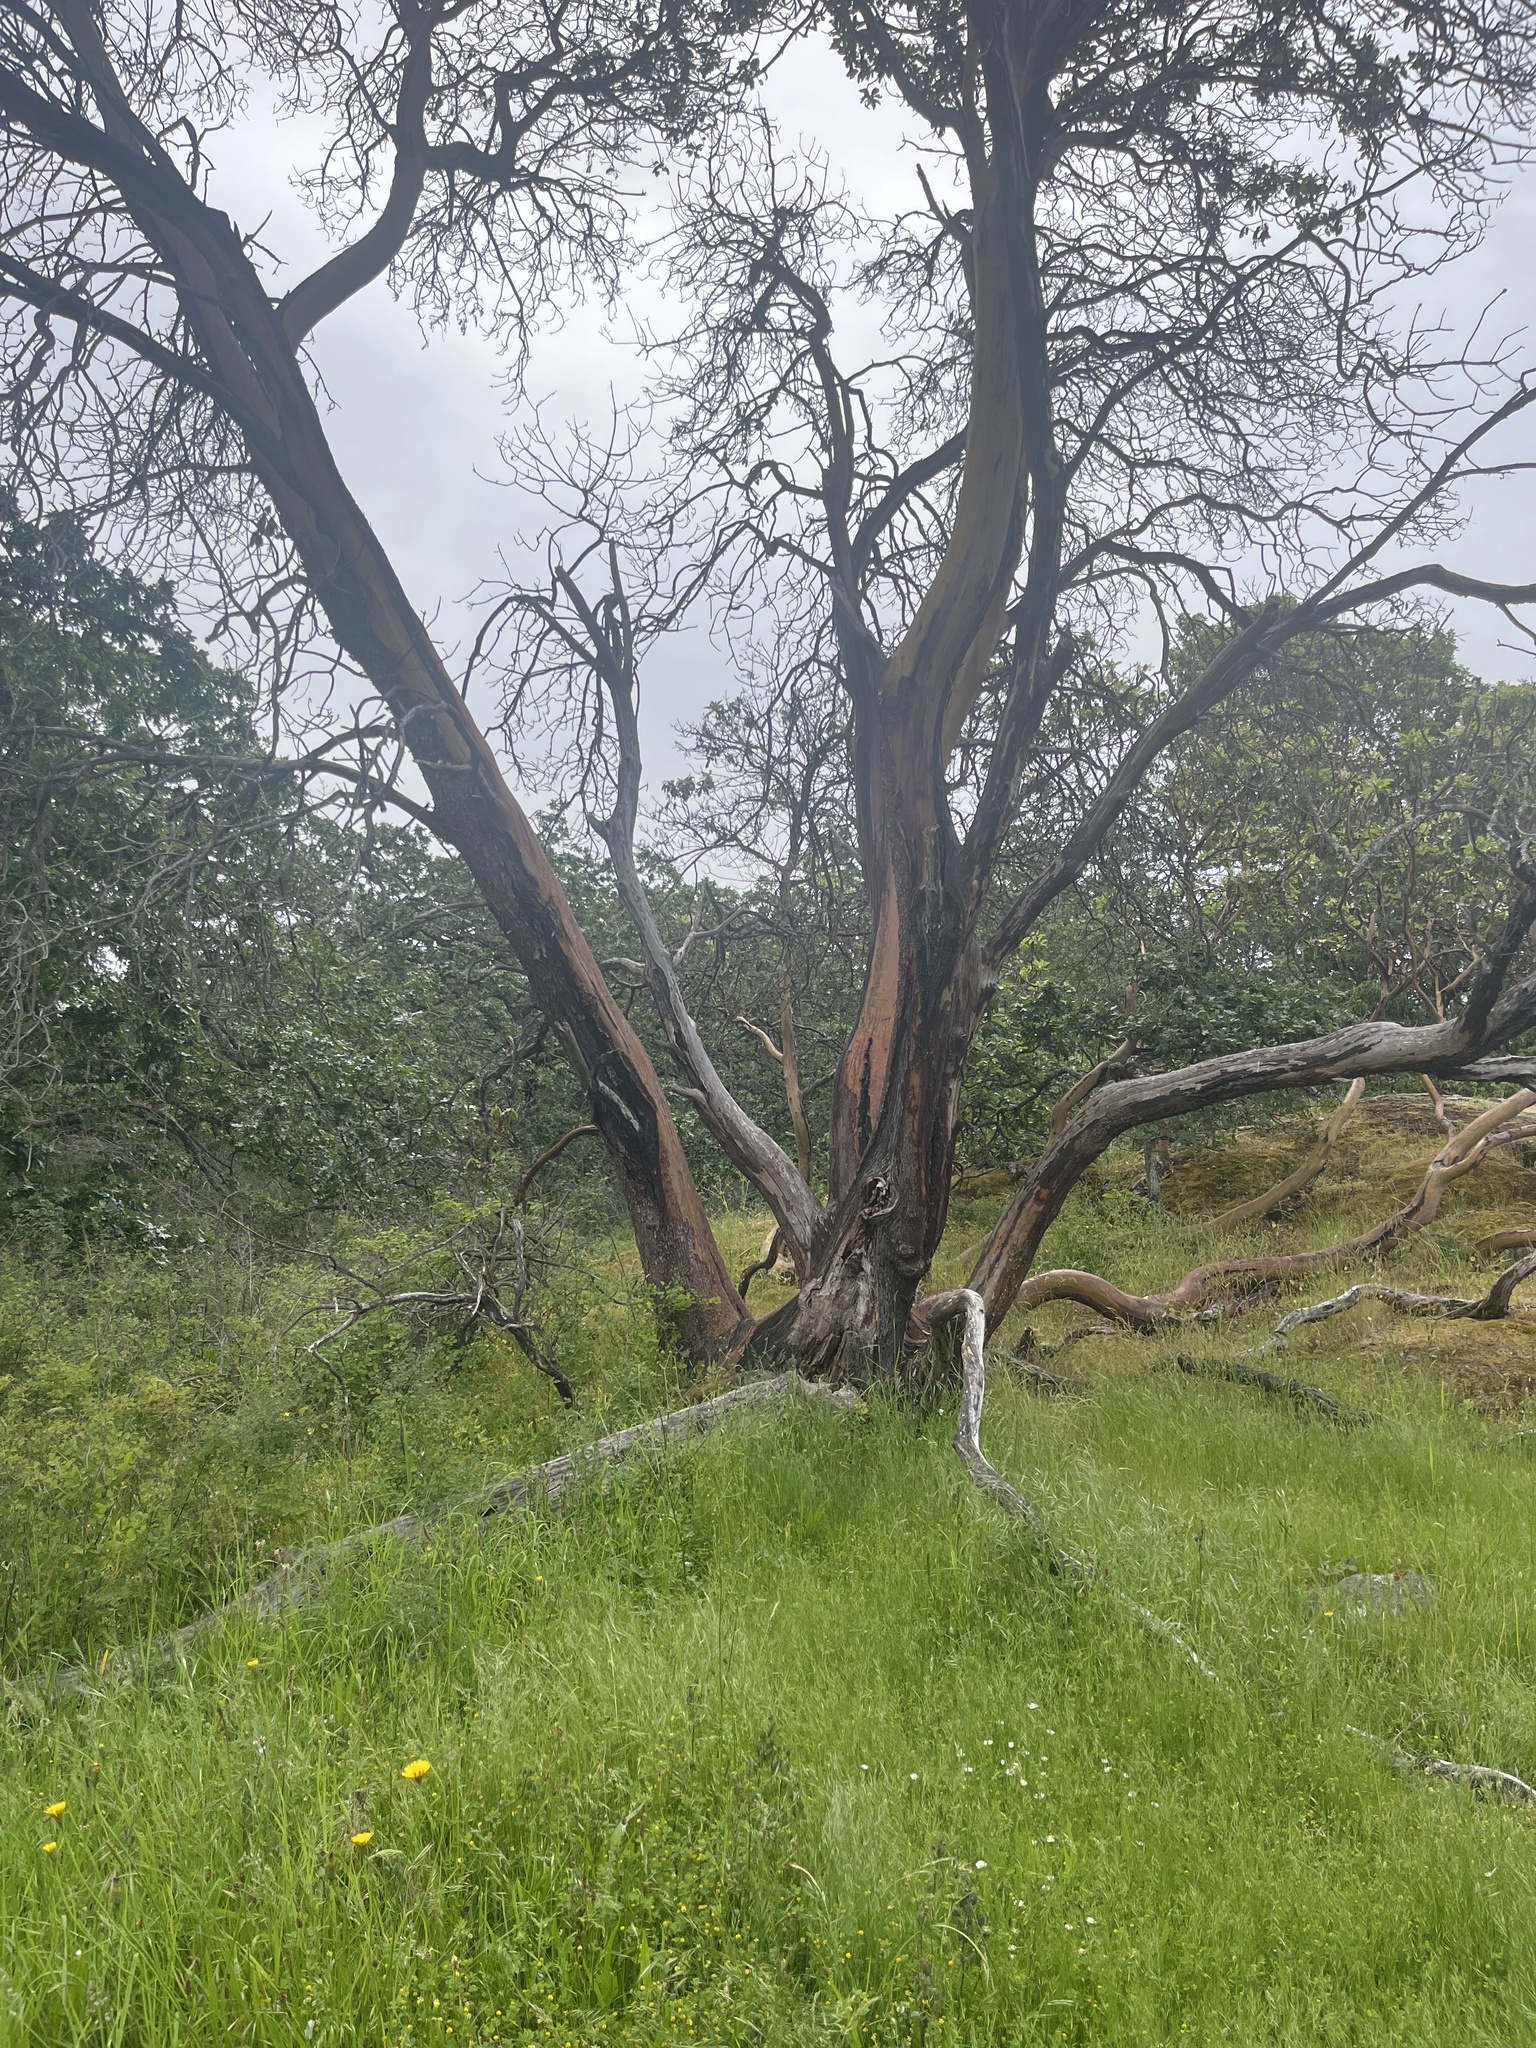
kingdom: Plantae
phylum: Tracheophyta
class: Magnoliopsida
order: Ericales
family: Ericaceae
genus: Arbutus
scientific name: Arbutus menziesii
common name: Pacific madrone
